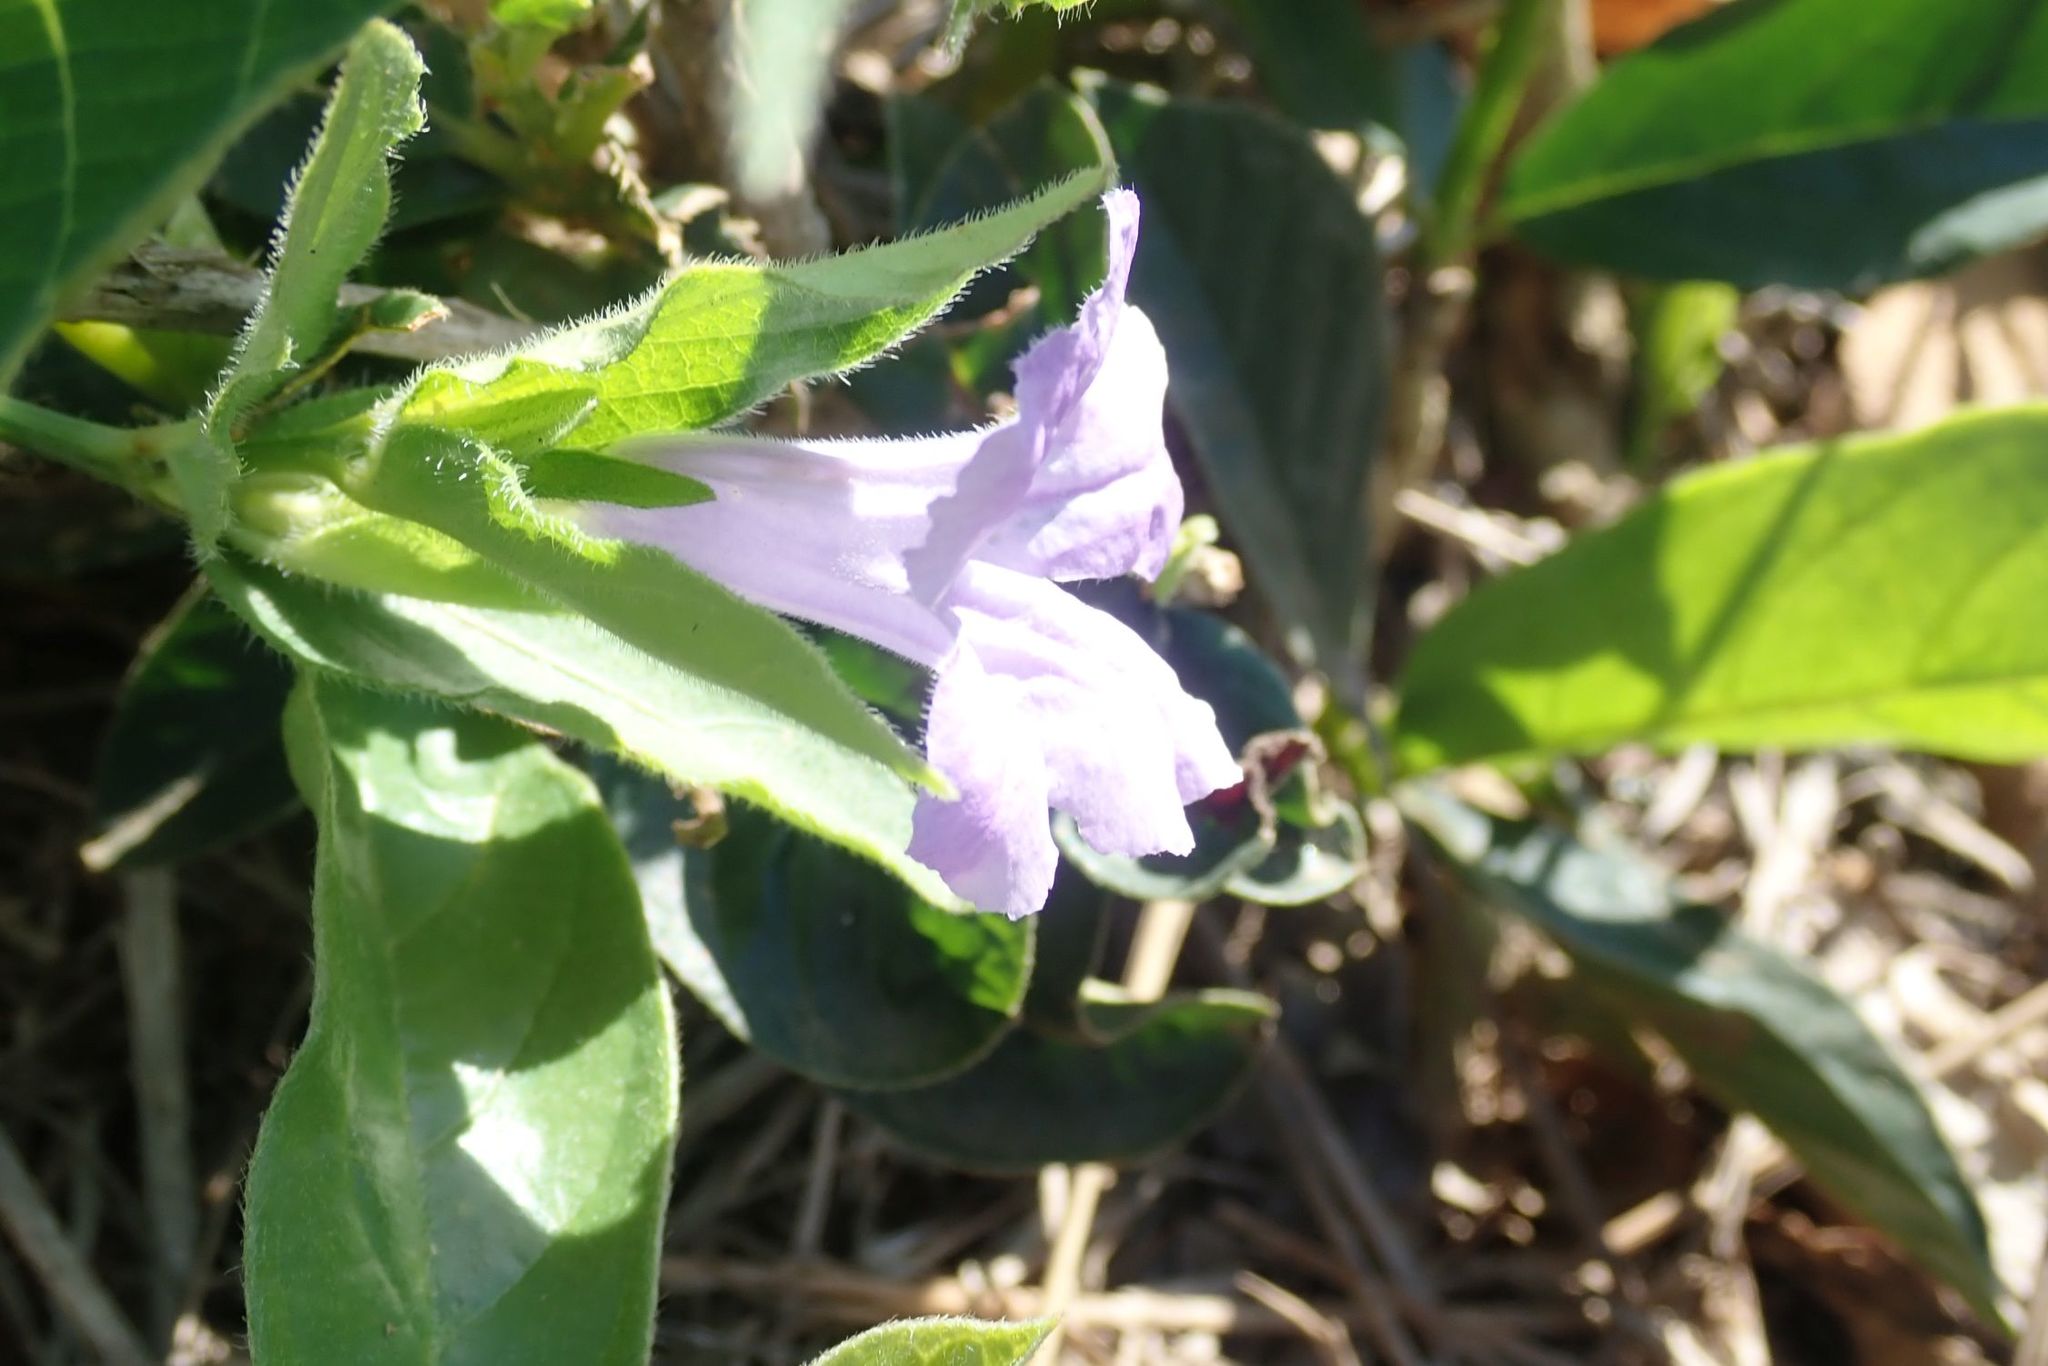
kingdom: Plantae
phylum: Tracheophyta
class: Magnoliopsida
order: Lamiales
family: Acanthaceae
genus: Ruellia
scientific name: Ruellia cordata
